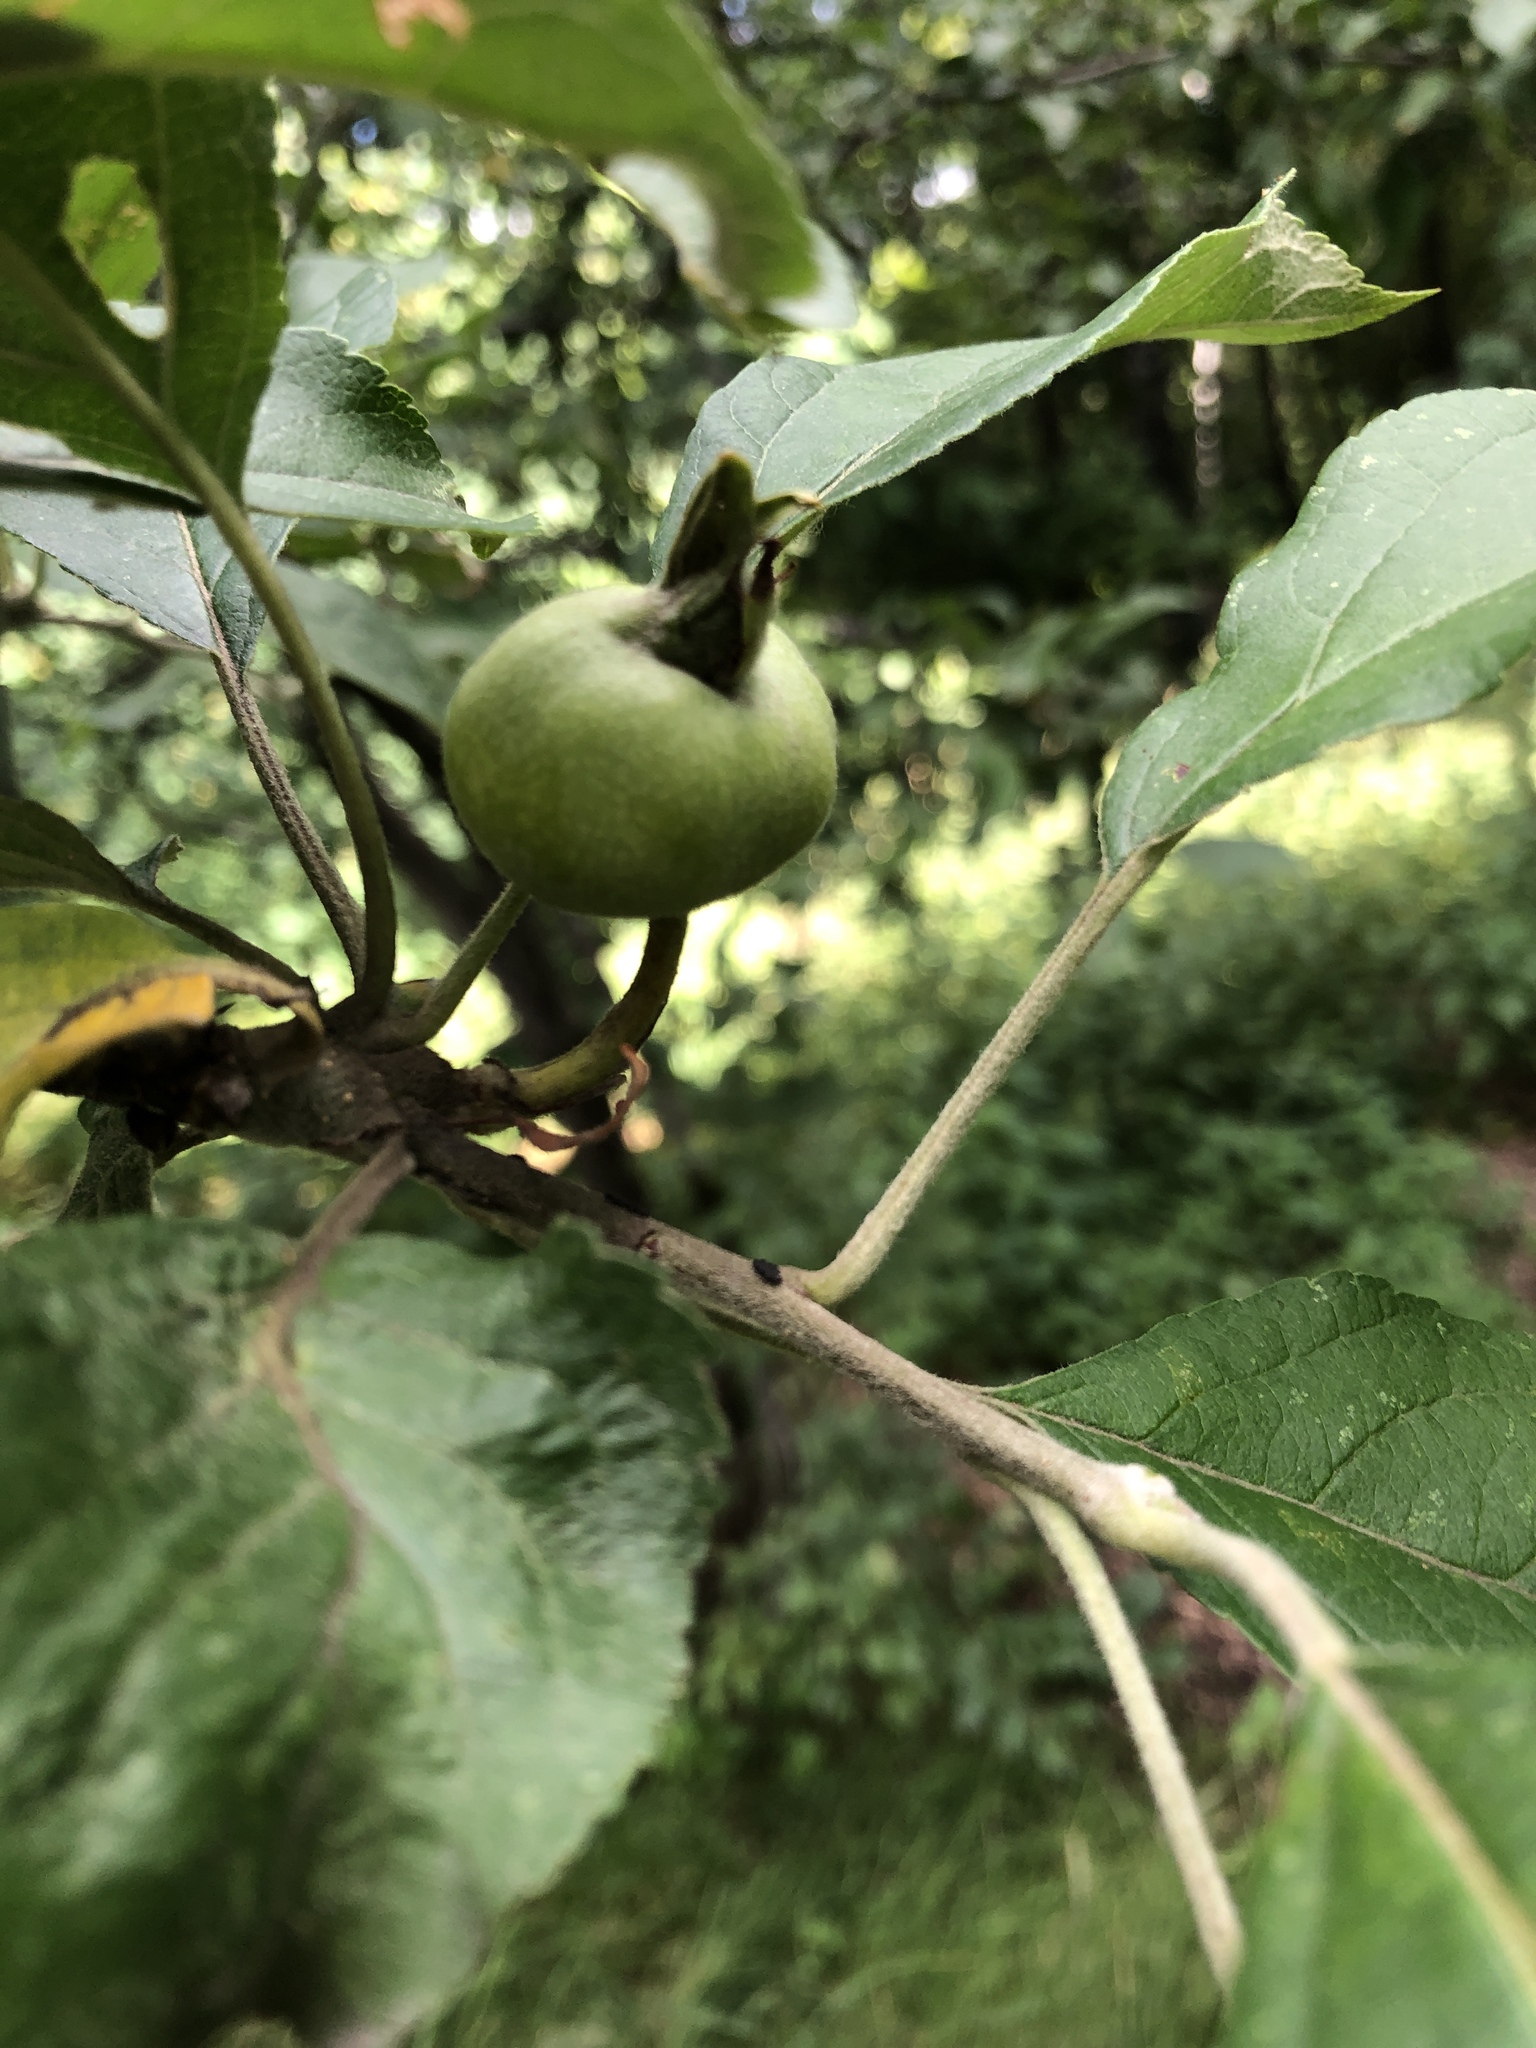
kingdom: Plantae
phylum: Tracheophyta
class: Magnoliopsida
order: Rosales
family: Rosaceae
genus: Malus
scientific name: Malus domestica
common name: Apple
